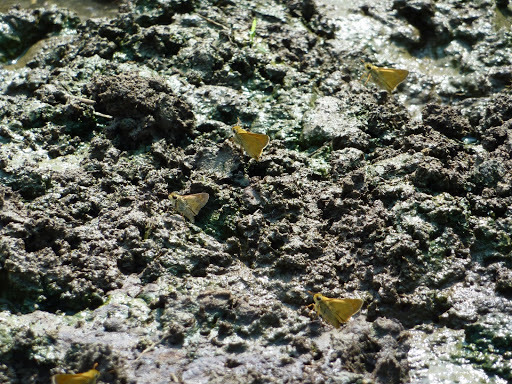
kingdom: Animalia
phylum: Arthropoda
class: Insecta
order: Lepidoptera
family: Hesperiidae
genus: Atalopedes
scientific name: Atalopedes
